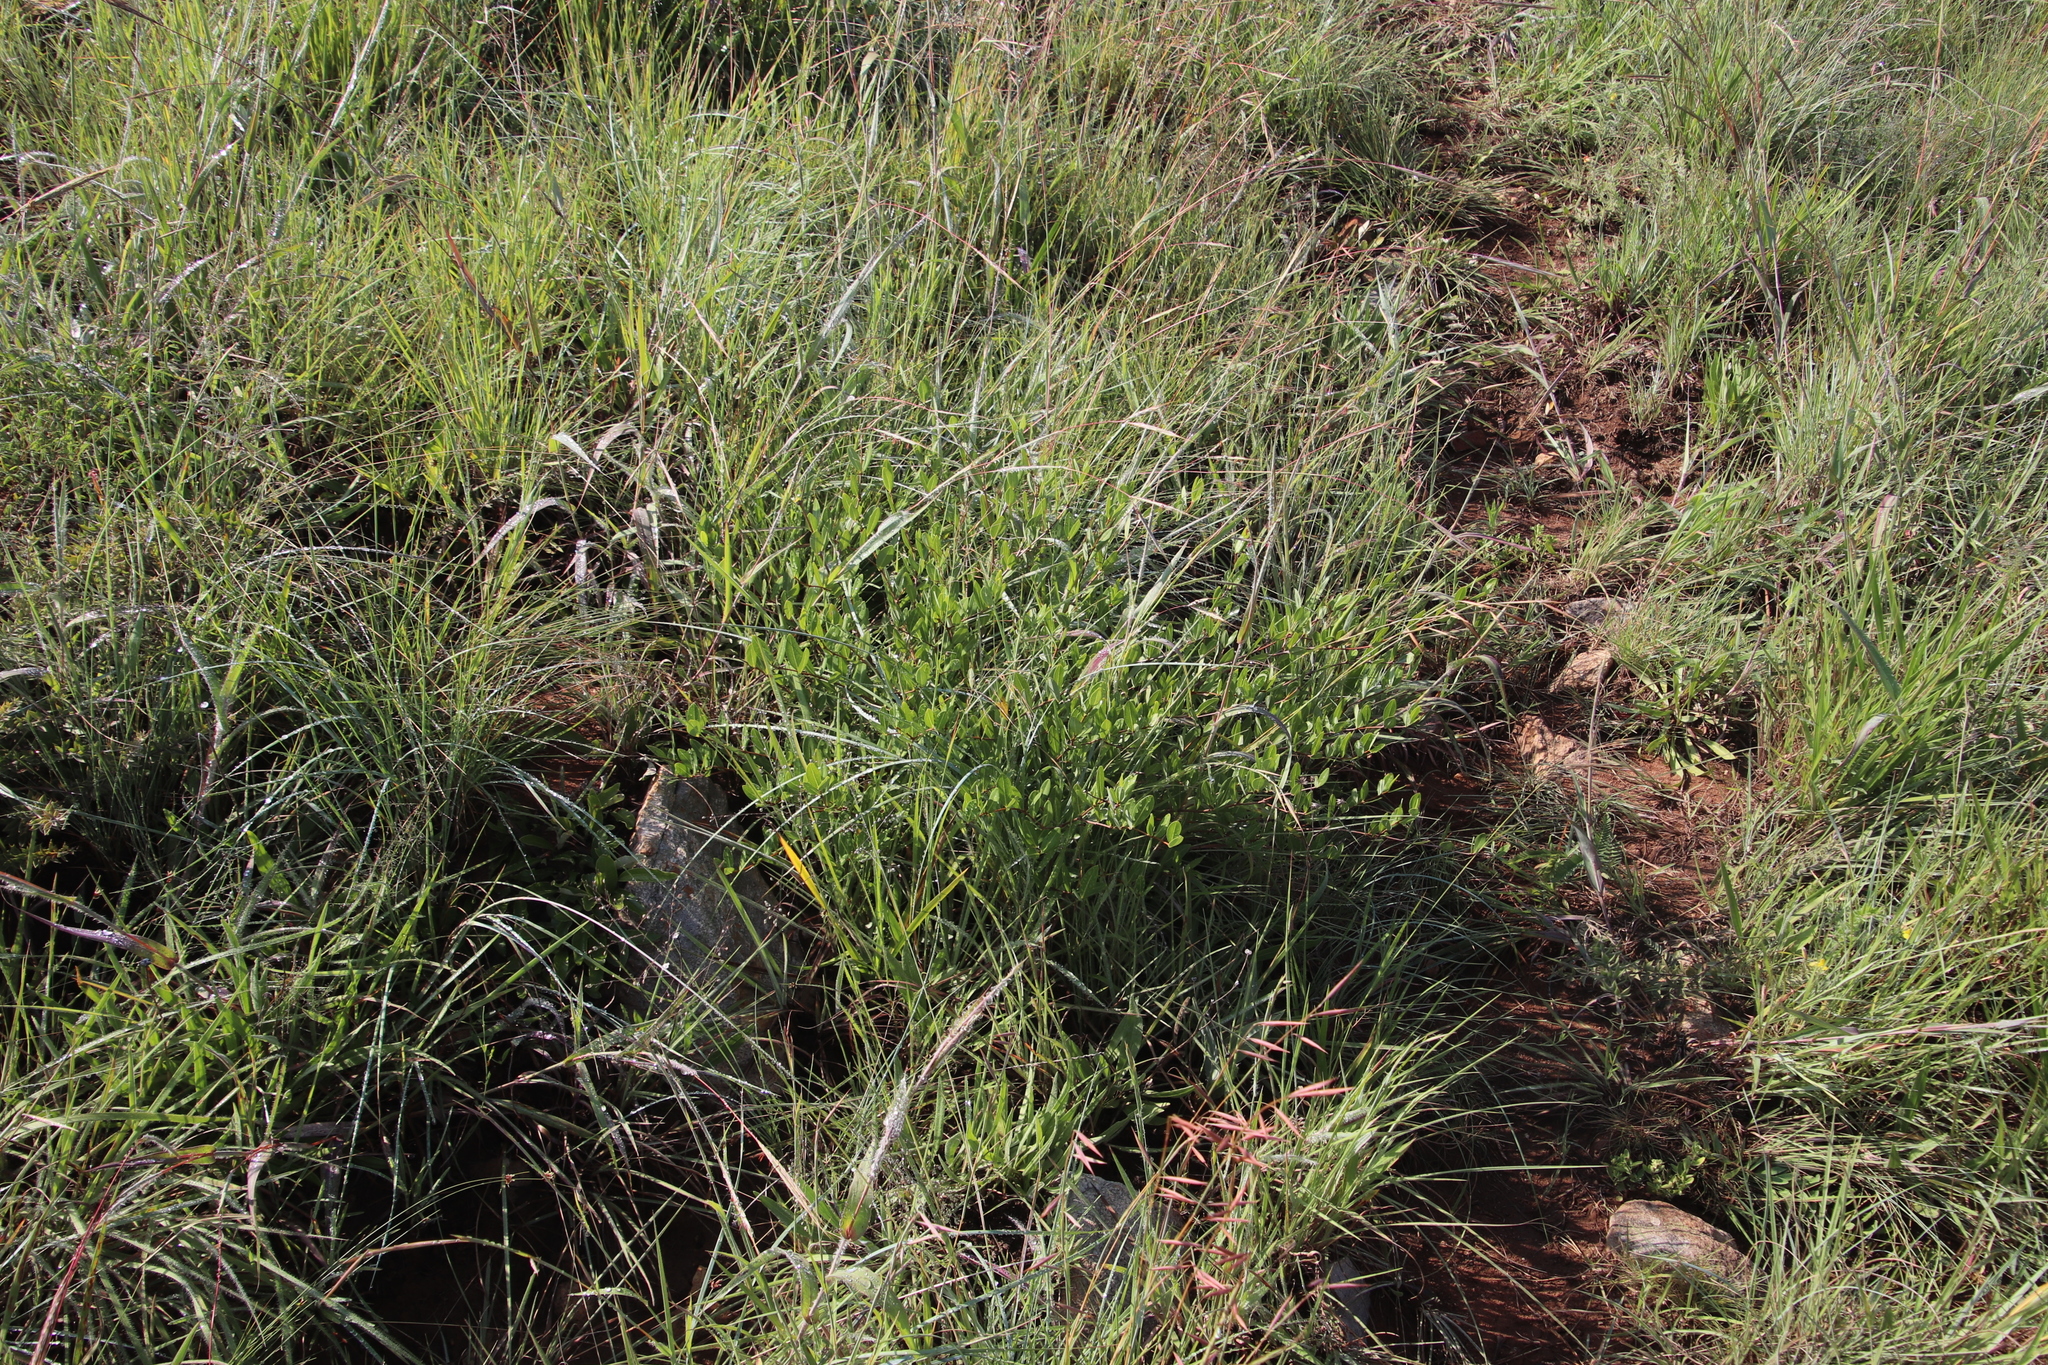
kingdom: Plantae
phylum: Tracheophyta
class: Magnoliopsida
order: Gentianales
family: Apocynaceae
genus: Cryptolepis
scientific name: Cryptolepis oblongifolia
